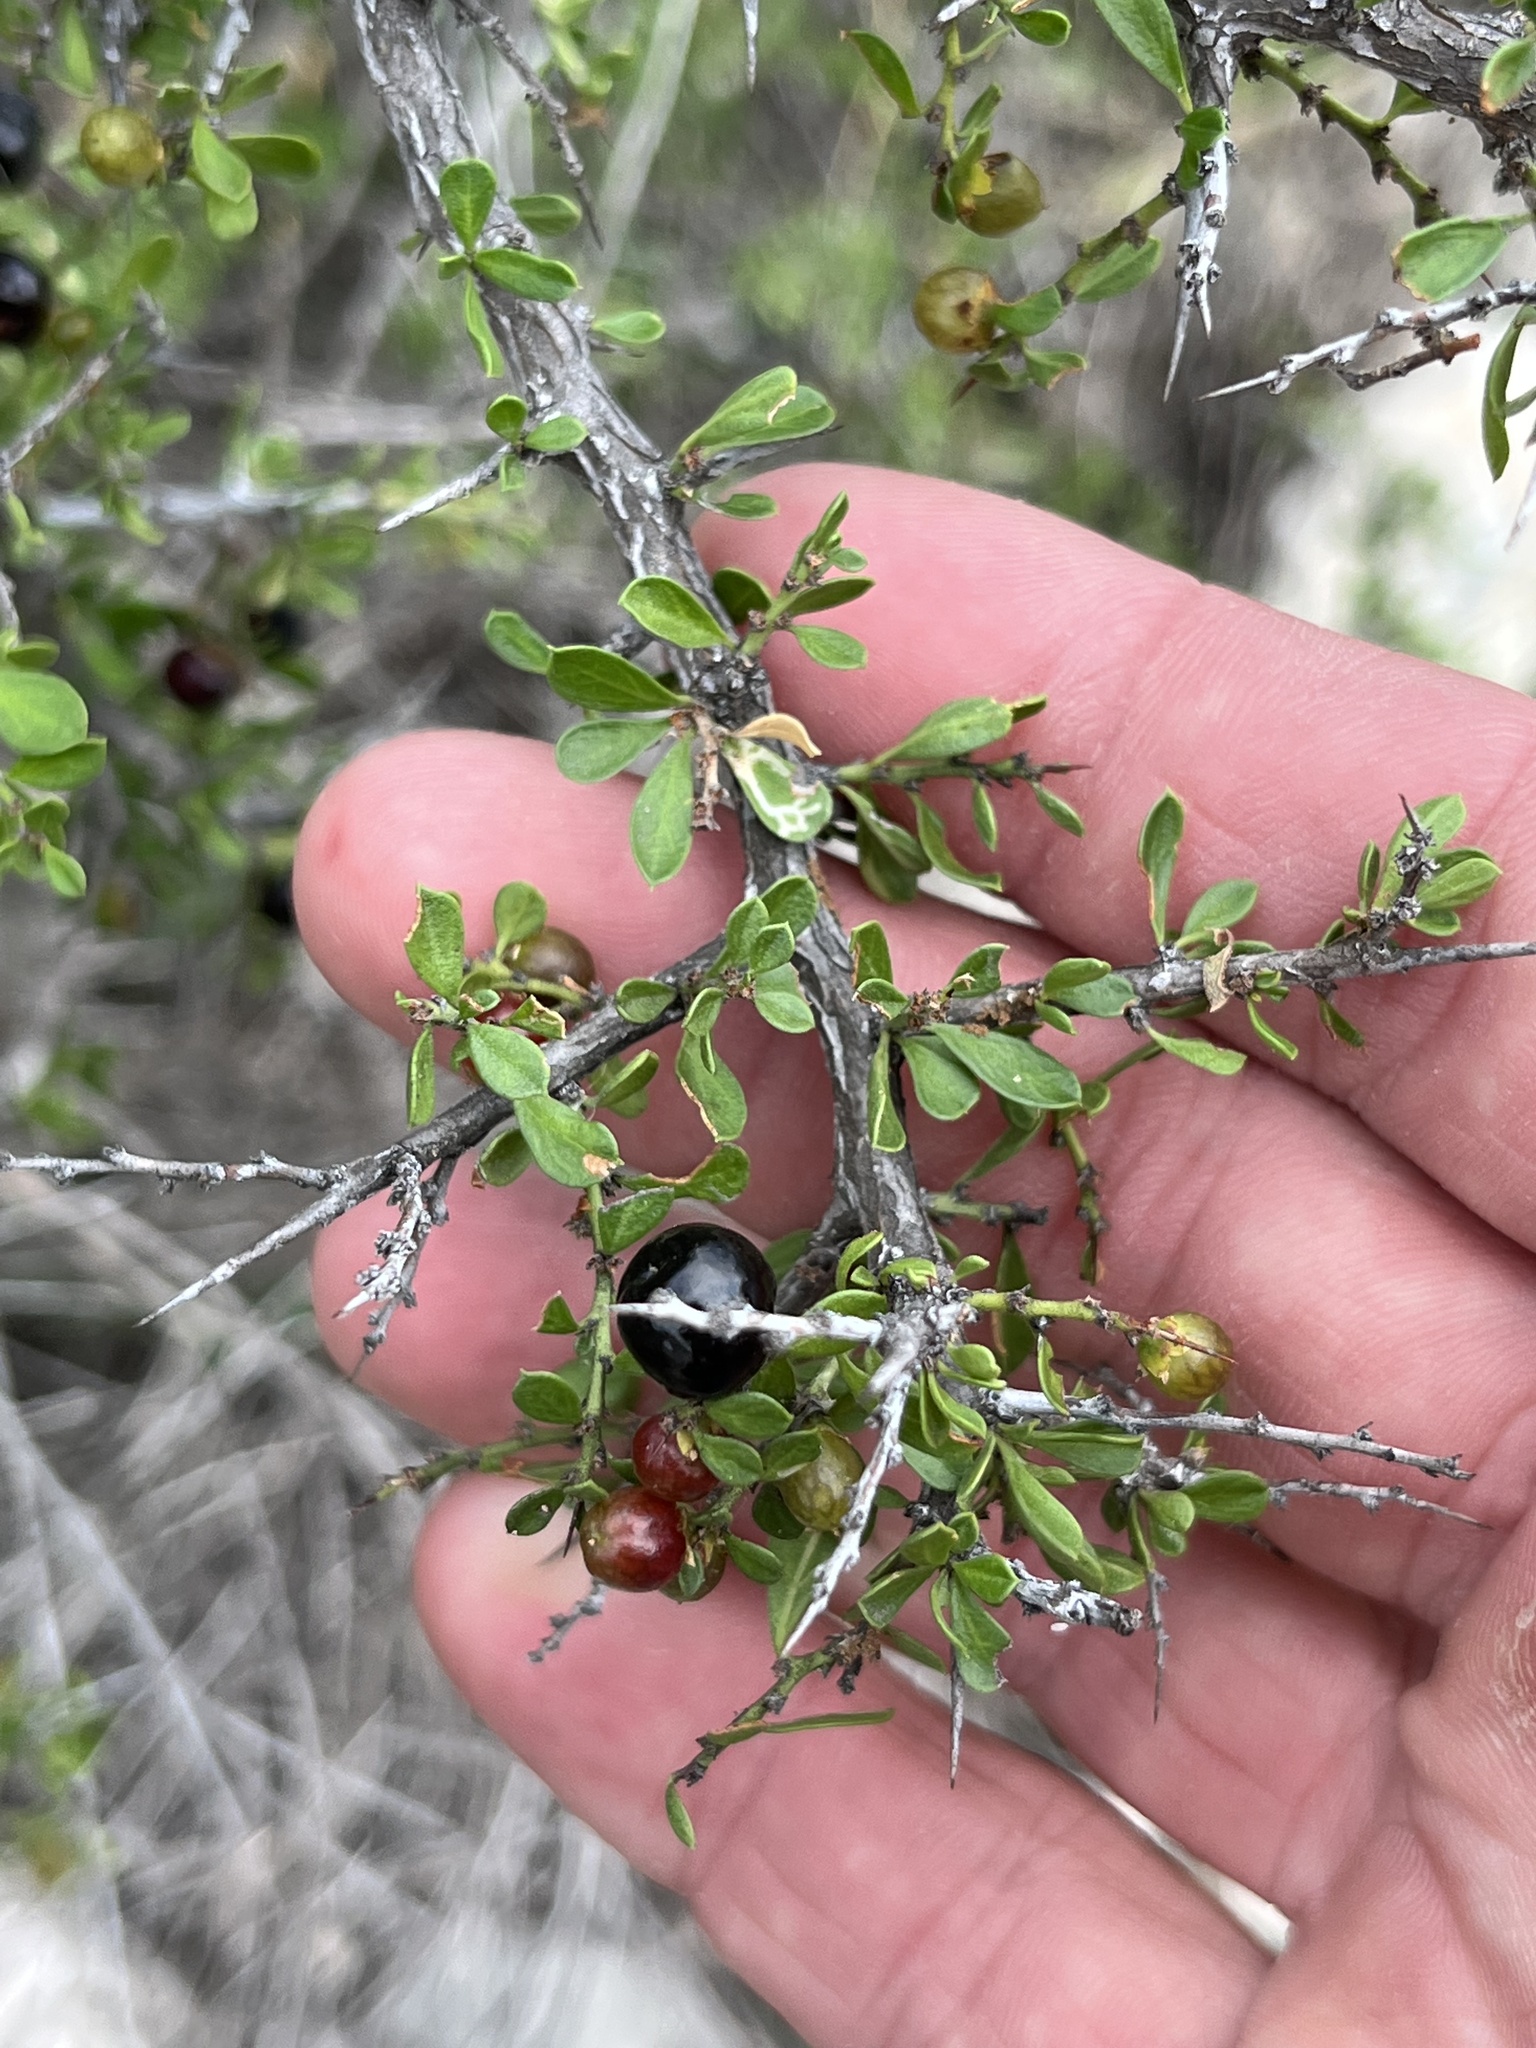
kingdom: Plantae
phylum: Tracheophyta
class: Magnoliopsida
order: Rosales
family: Rhamnaceae
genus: Condalia
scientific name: Condalia viridis
